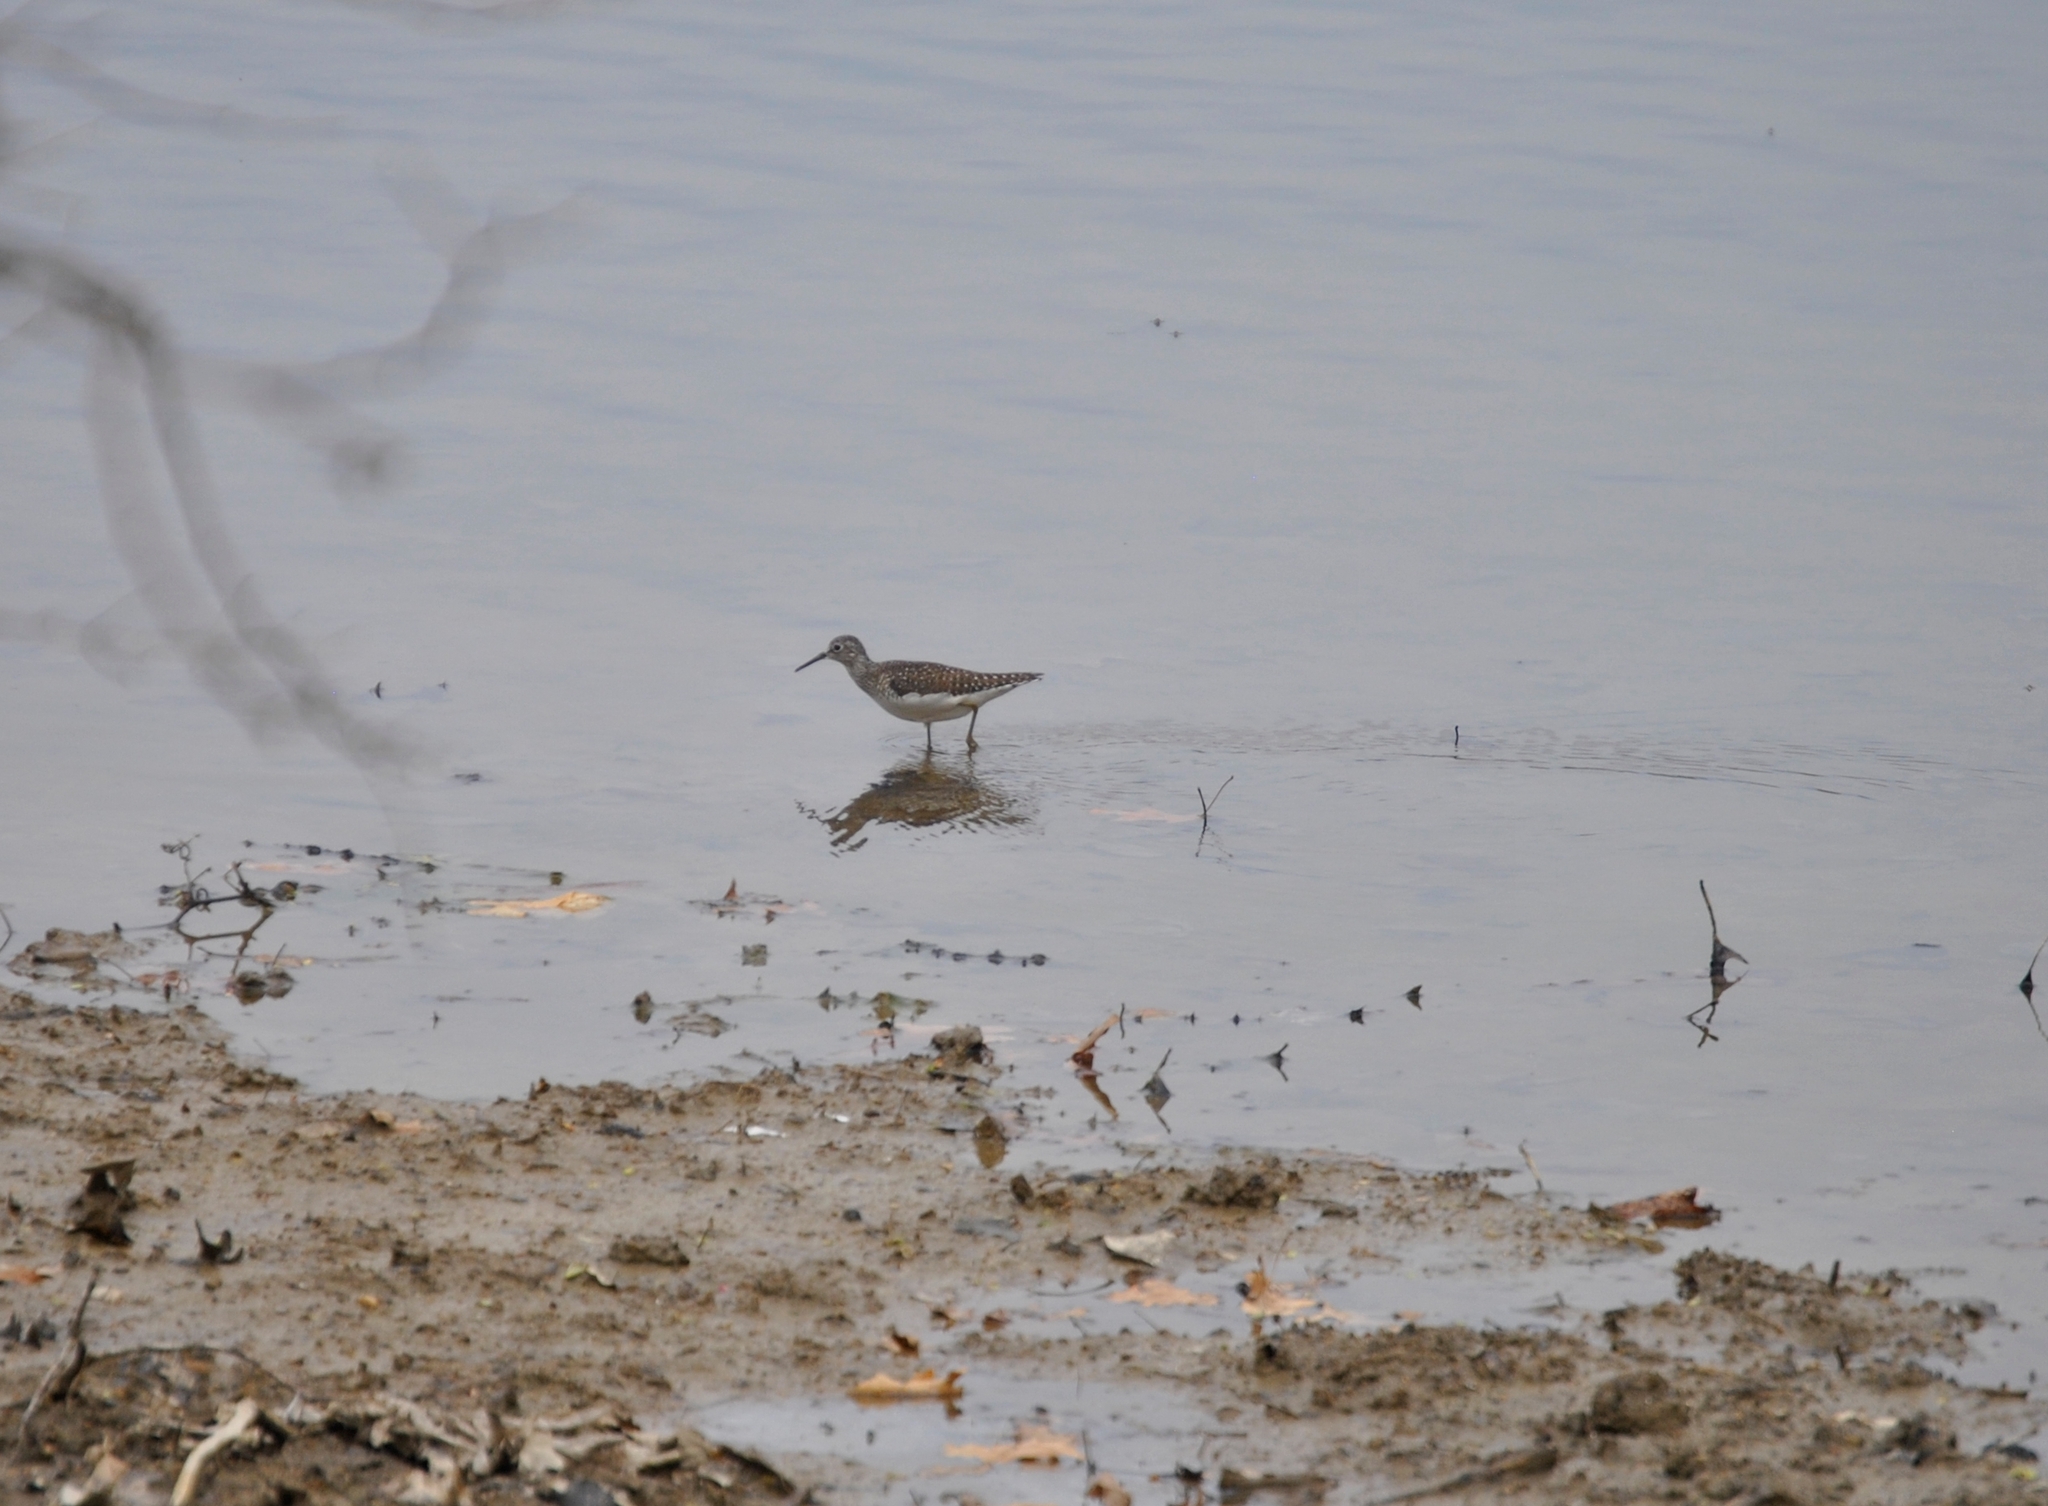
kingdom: Animalia
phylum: Chordata
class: Aves
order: Charadriiformes
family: Scolopacidae
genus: Tringa
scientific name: Tringa solitaria
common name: Solitary sandpiper
